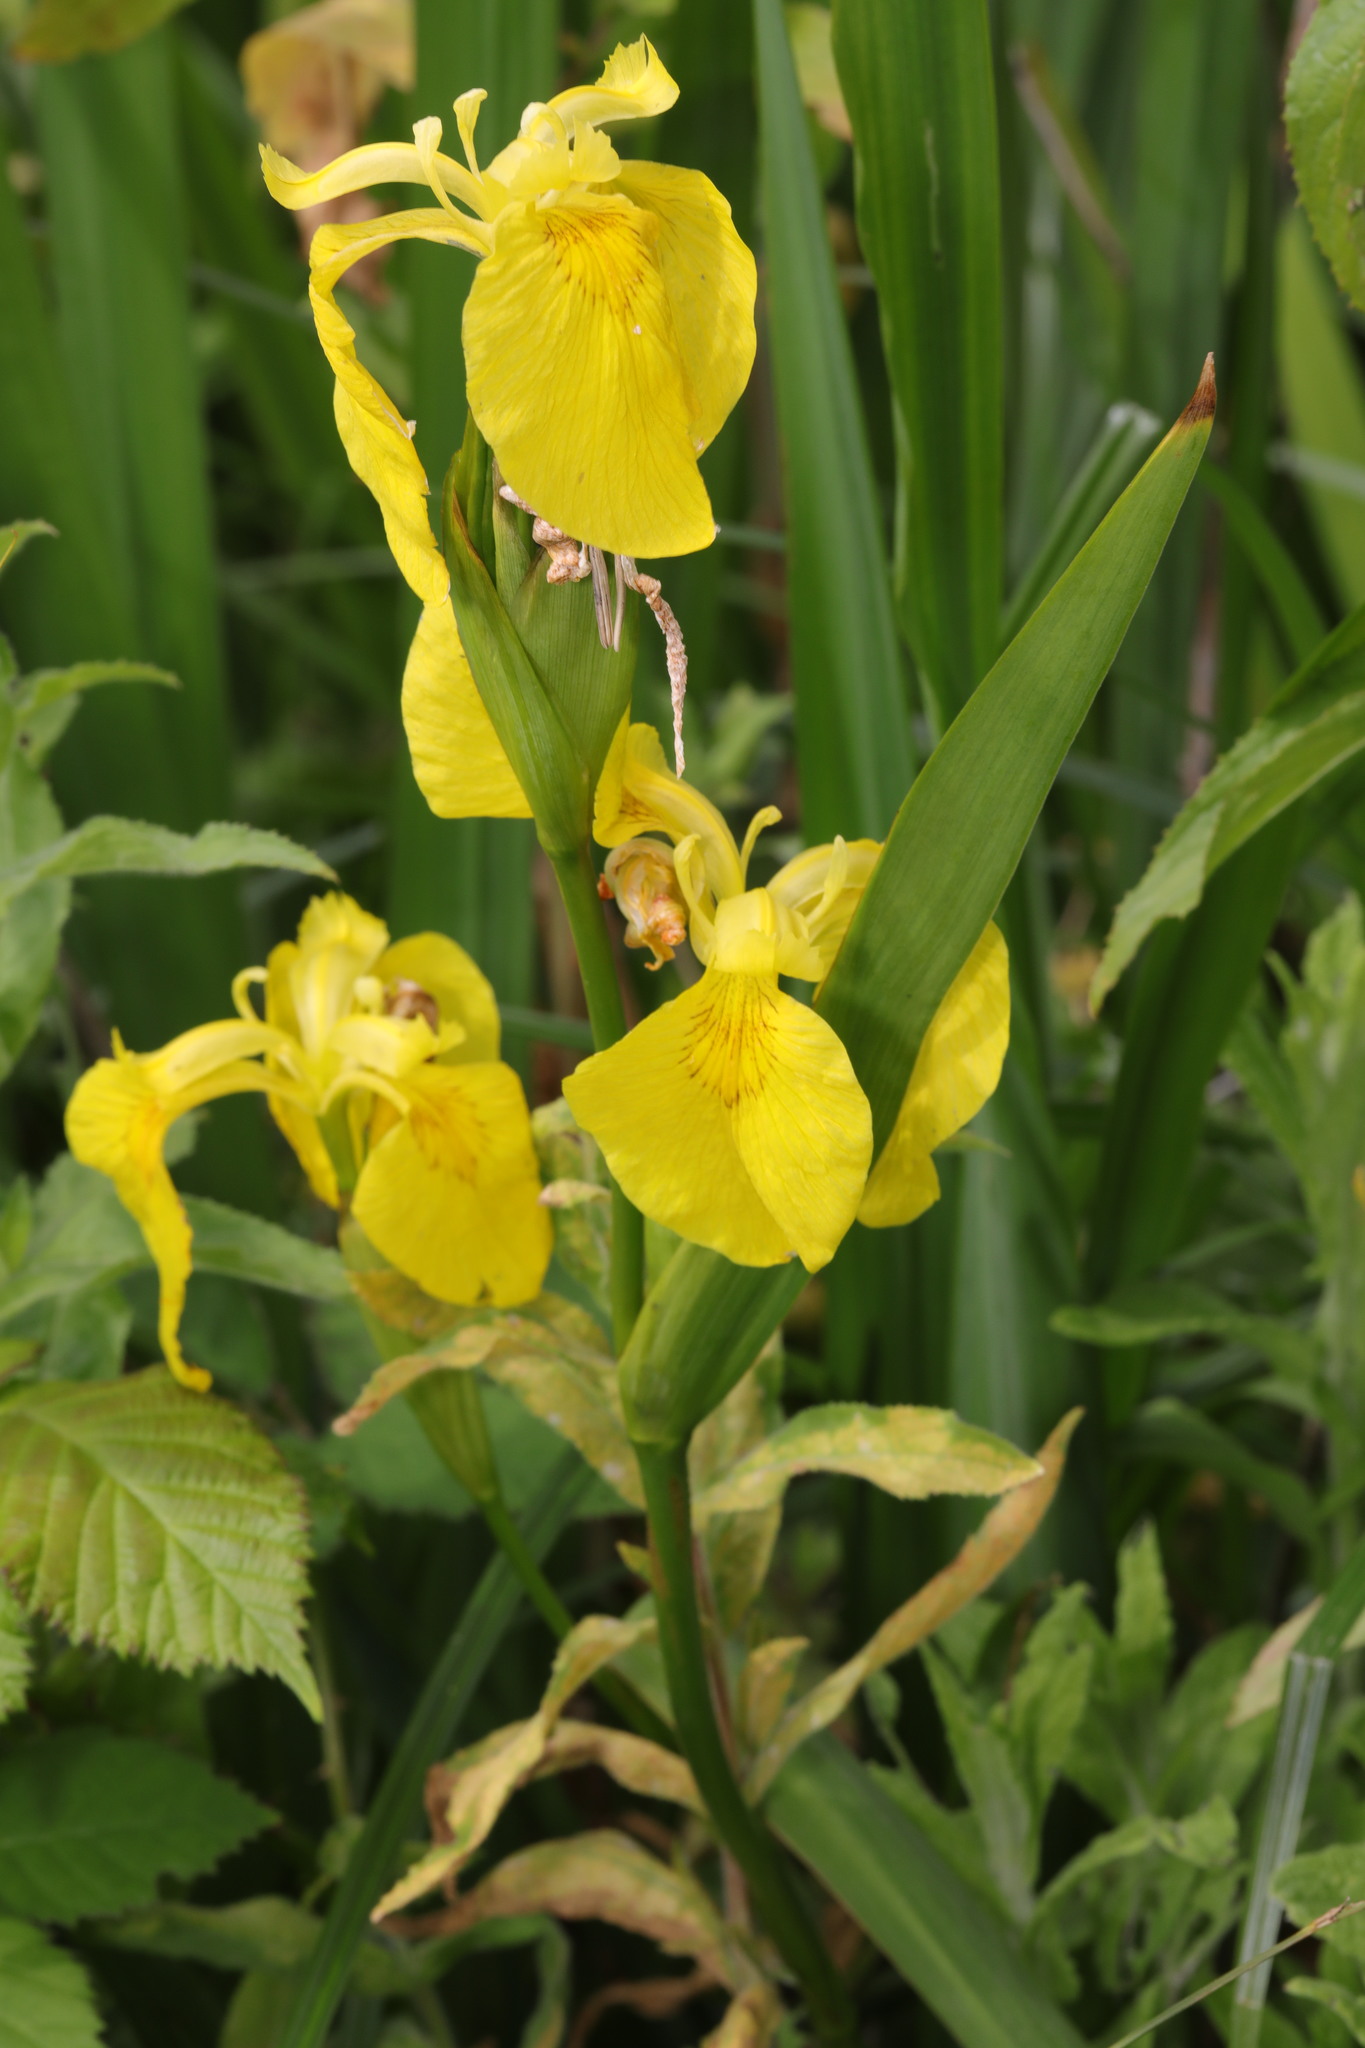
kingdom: Plantae
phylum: Tracheophyta
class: Liliopsida
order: Asparagales
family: Iridaceae
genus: Iris
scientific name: Iris pseudacorus
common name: Yellow flag
